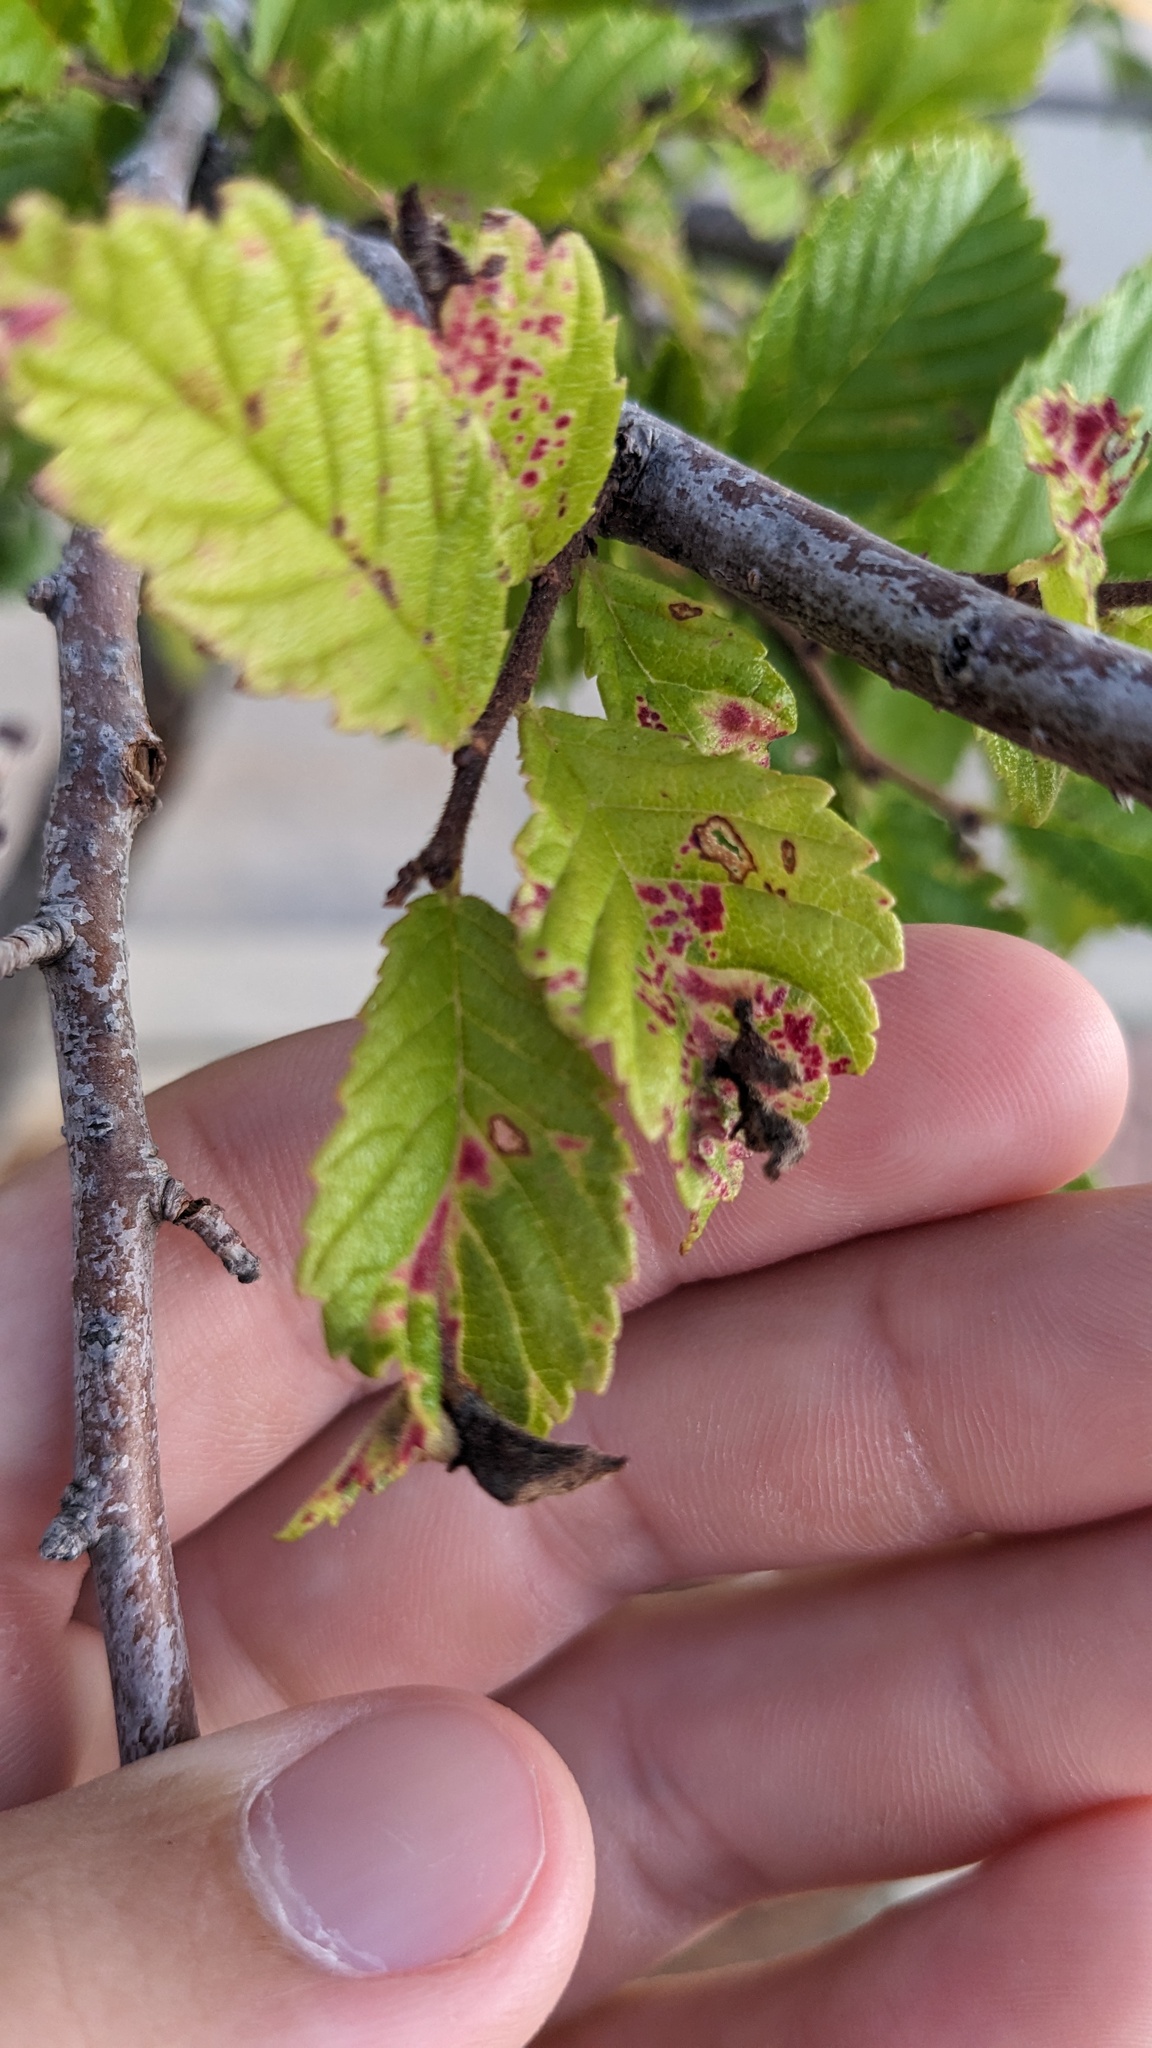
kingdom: Animalia
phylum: Arthropoda
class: Insecta
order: Hemiptera
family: Aphididae
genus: Tetraneura
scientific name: Tetraneura nigriabdominalis
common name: Aphid
